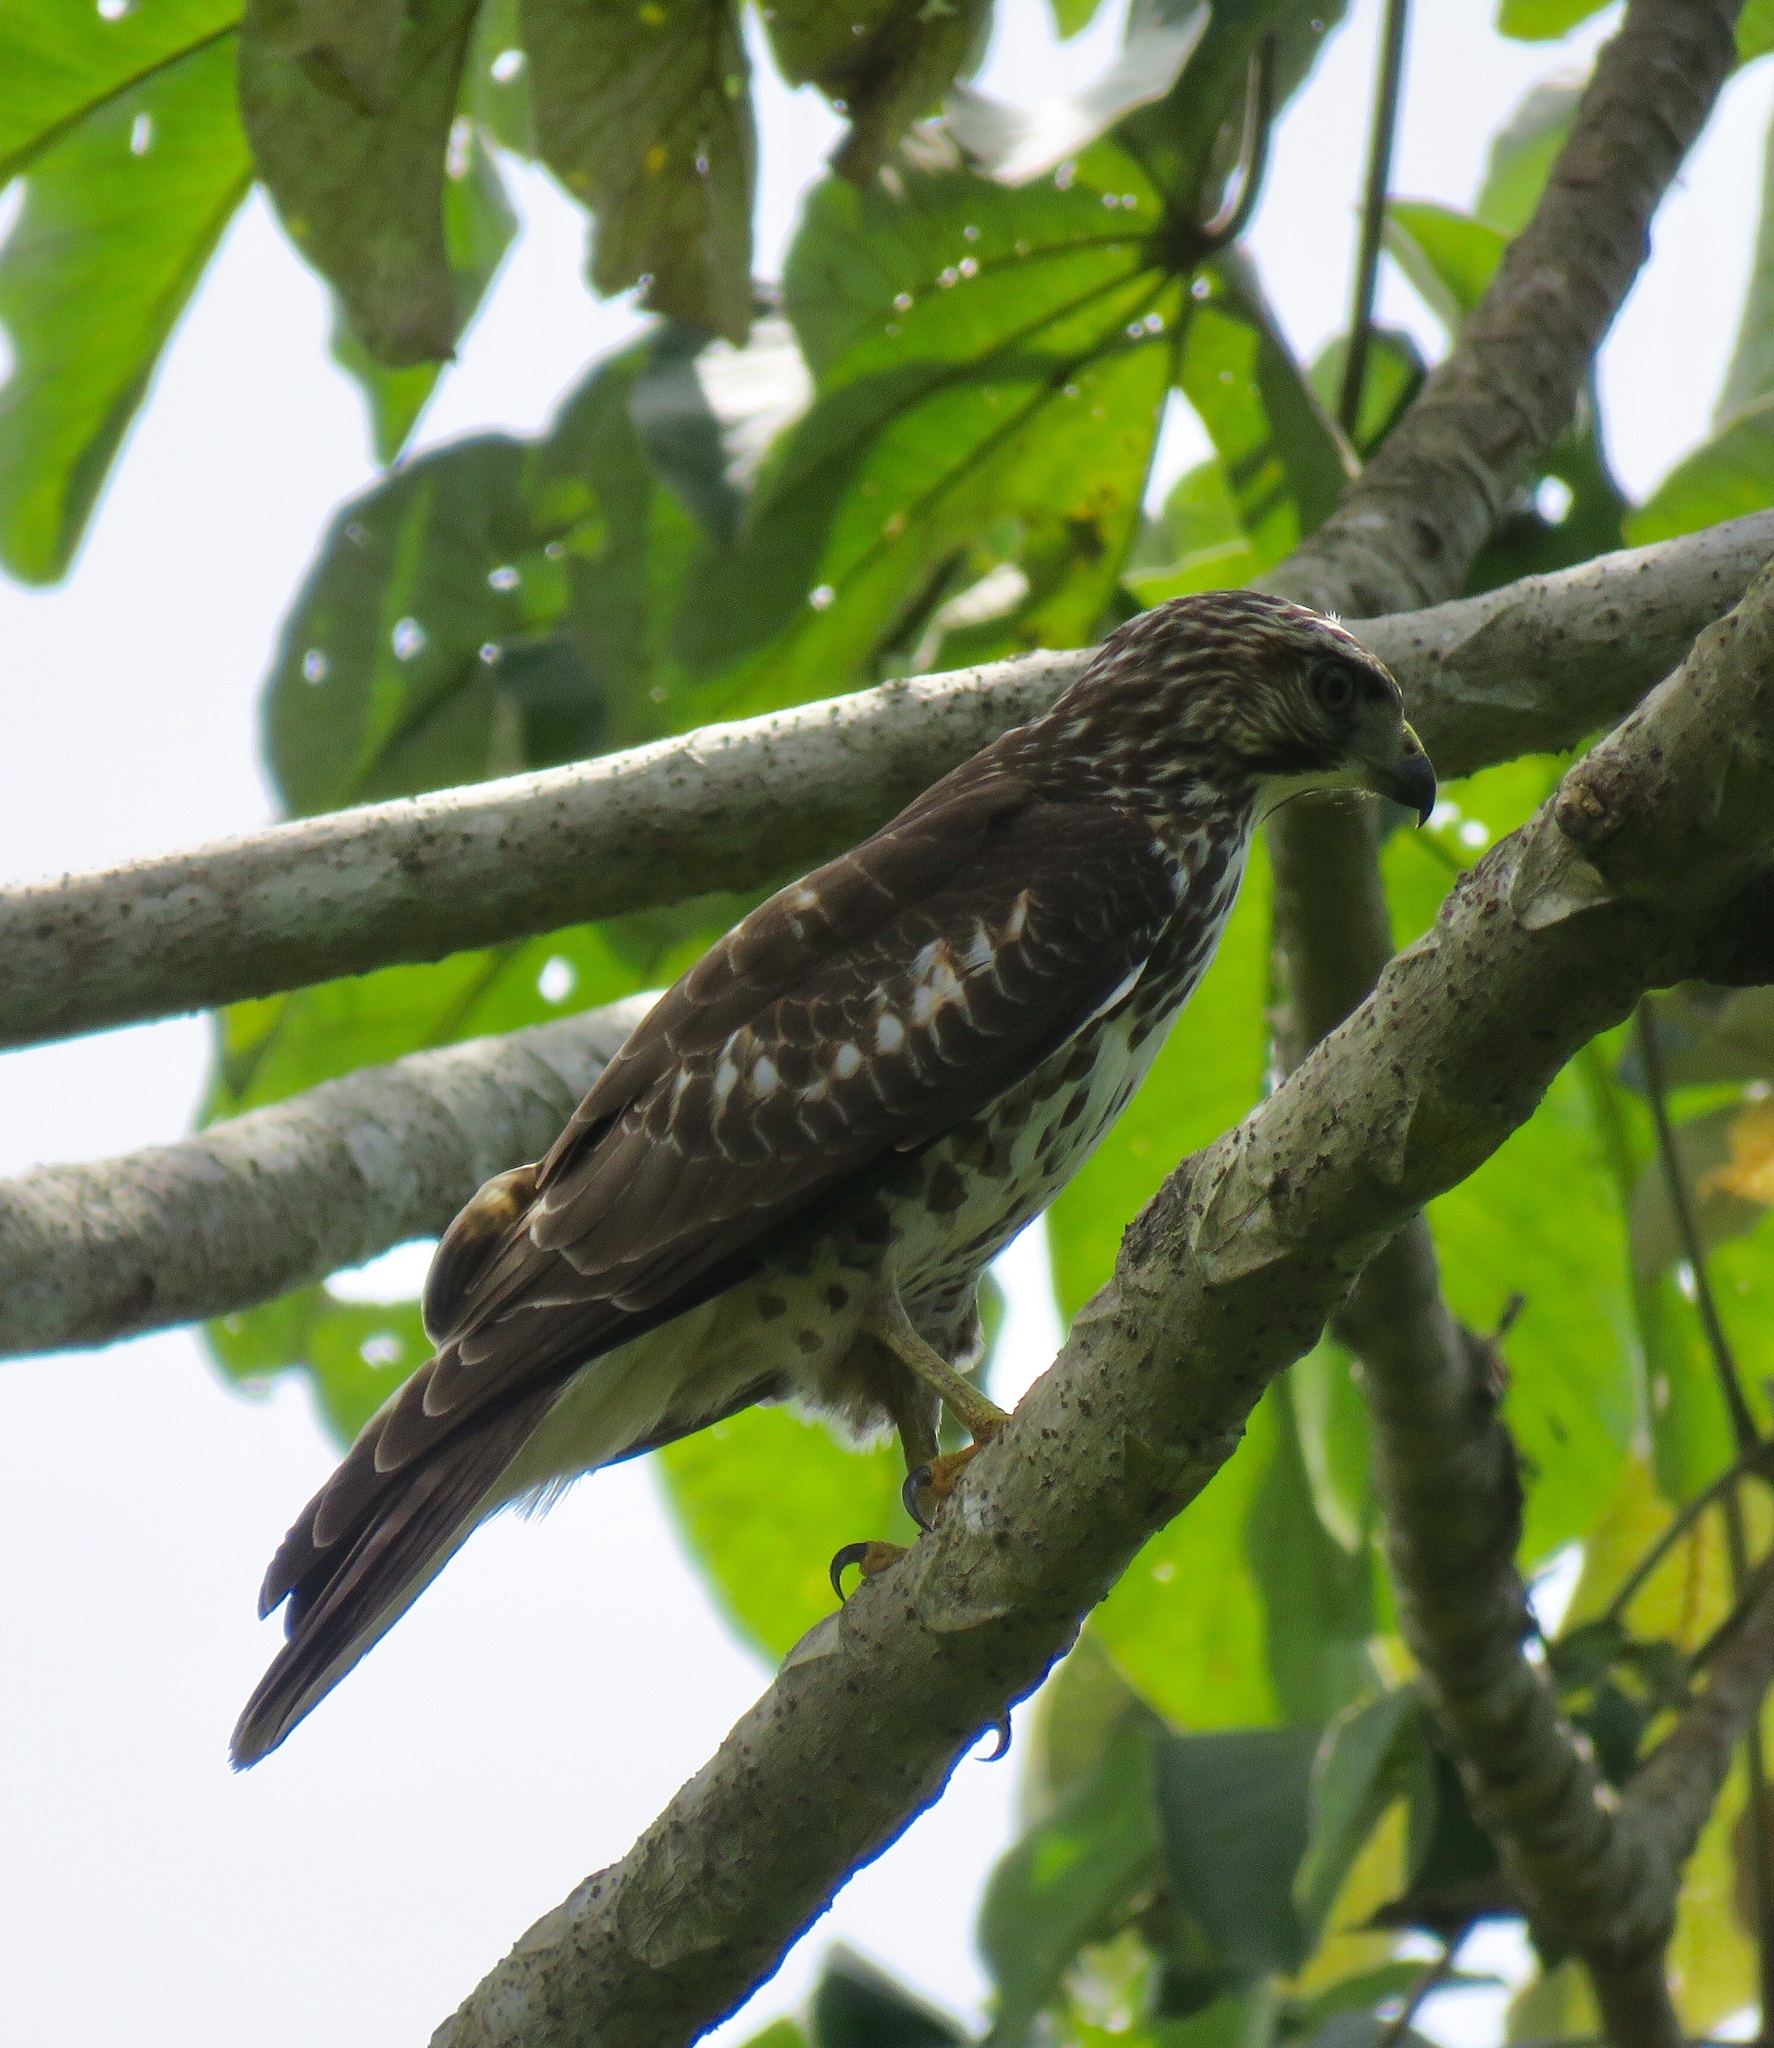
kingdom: Animalia
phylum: Chordata
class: Aves
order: Accipitriformes
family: Accipitridae
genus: Buteo
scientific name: Buteo platypterus
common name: Broad-winged hawk
